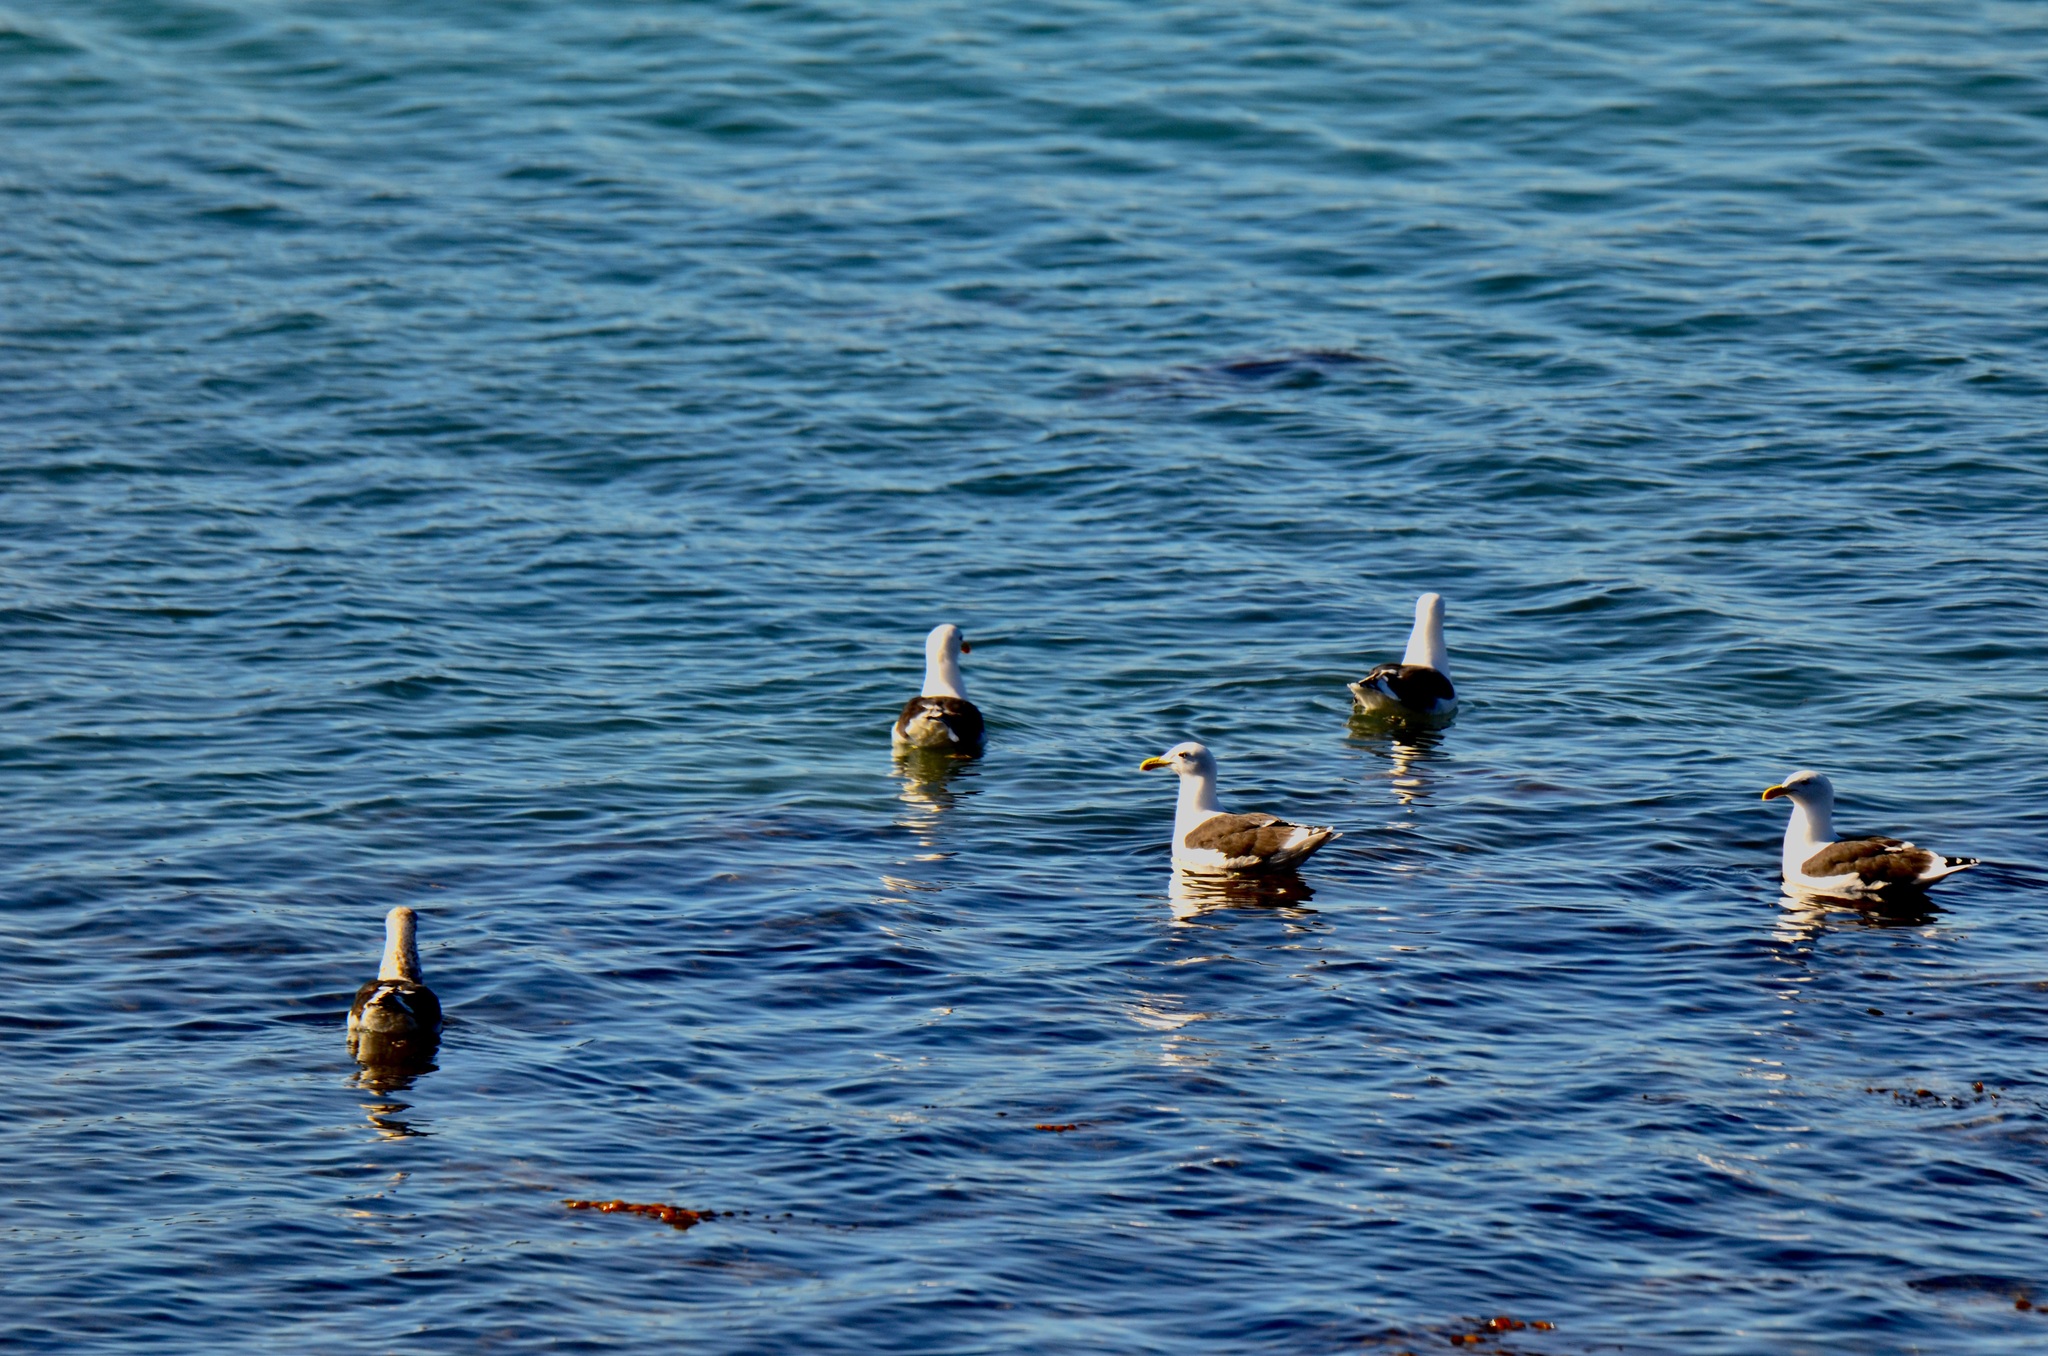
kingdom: Animalia
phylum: Chordata
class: Aves
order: Charadriiformes
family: Laridae
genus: Larus
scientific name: Larus dominicanus
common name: Kelp gull
